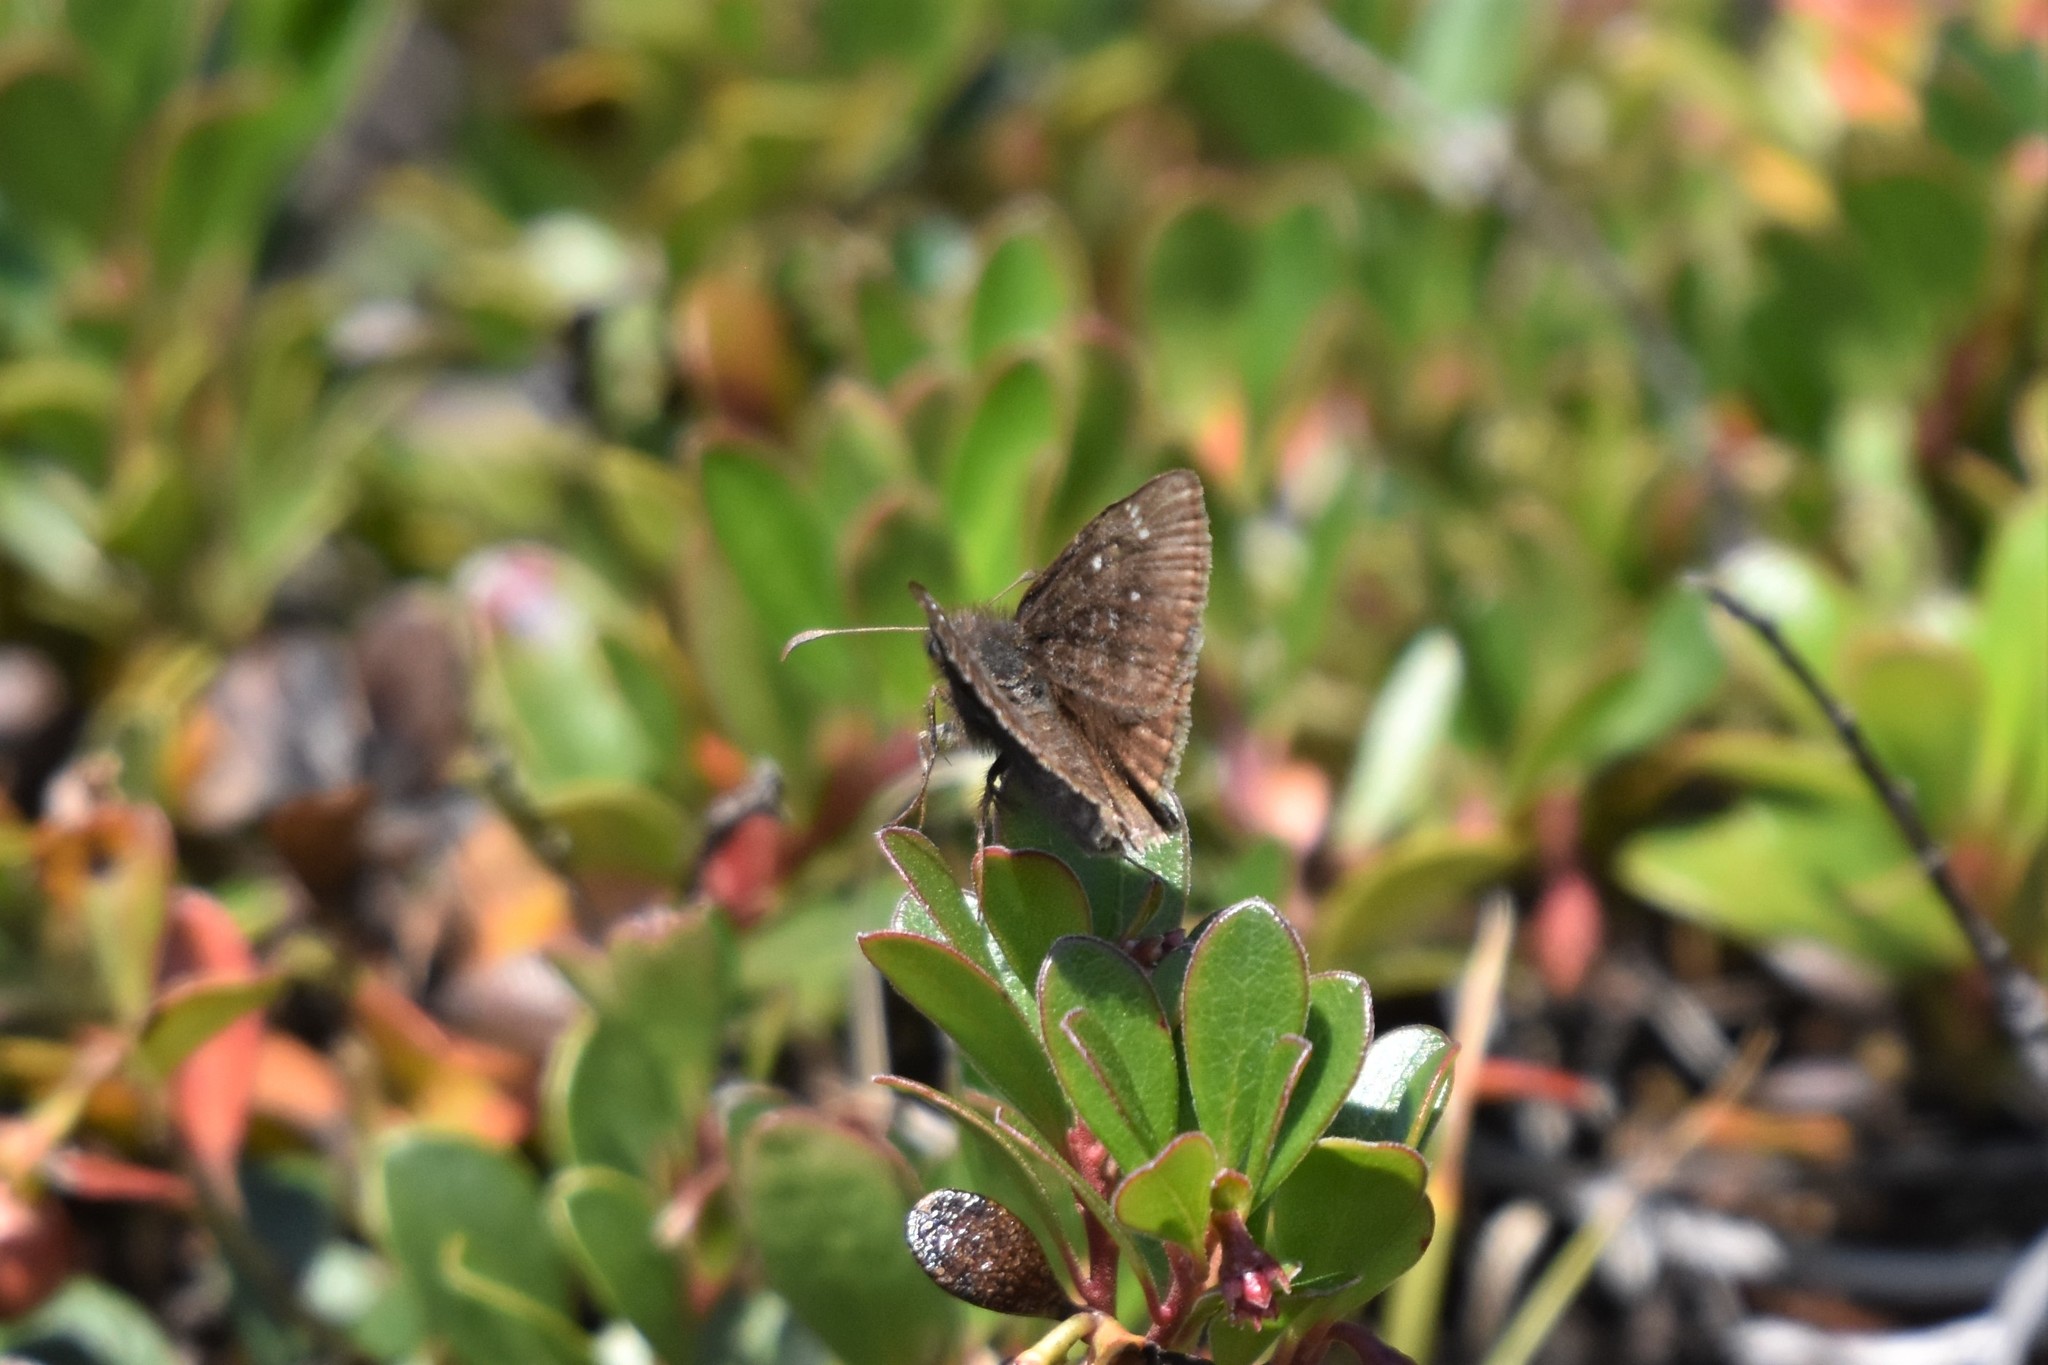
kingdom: Animalia
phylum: Arthropoda
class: Insecta
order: Lepidoptera
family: Hesperiidae
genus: Erynnis
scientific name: Erynnis persius
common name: Persius duskywing
